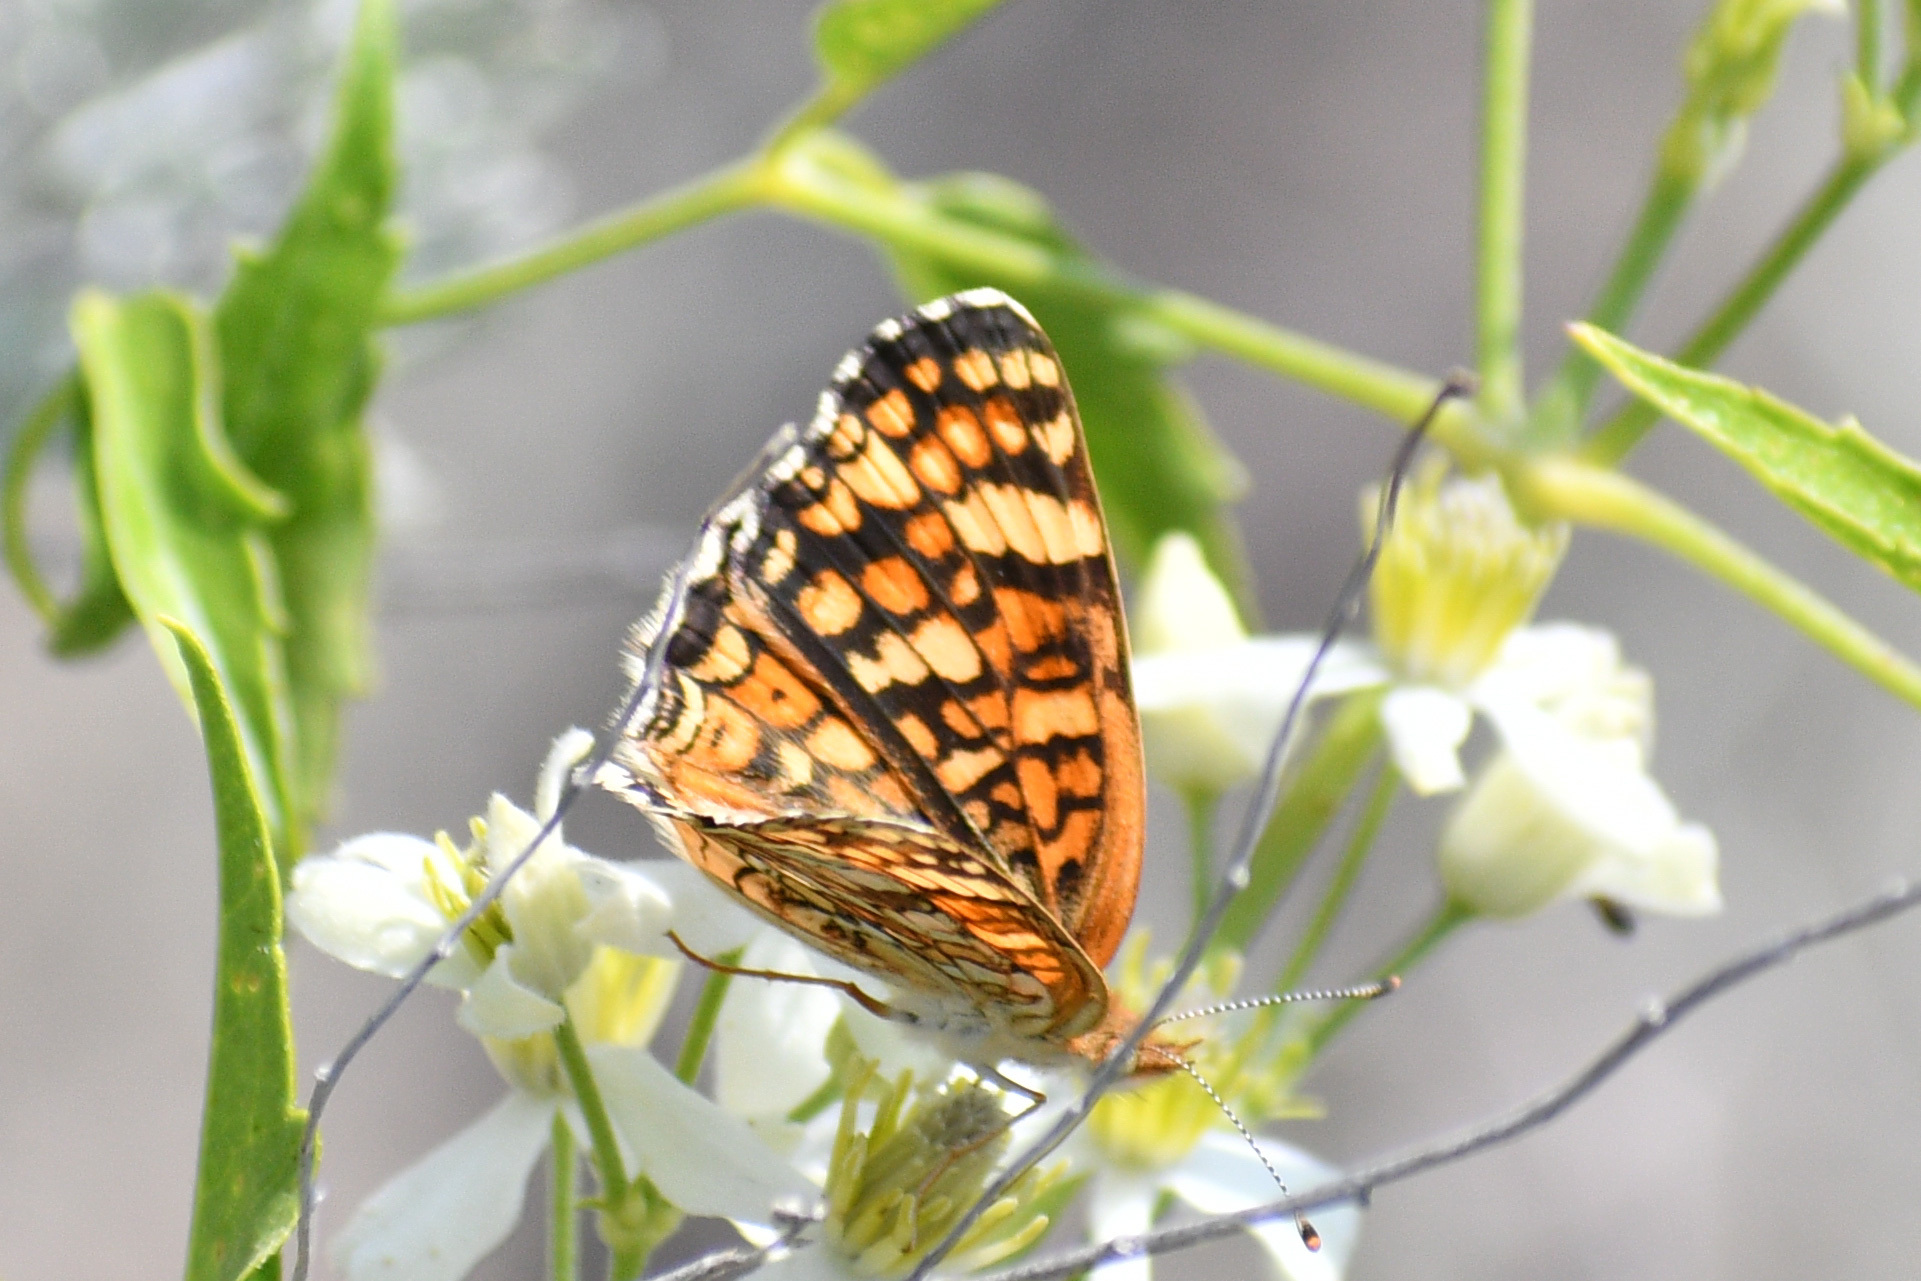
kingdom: Animalia
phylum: Arthropoda
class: Insecta
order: Lepidoptera
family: Nymphalidae
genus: Phyciodes
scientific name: Phyciodes pallida
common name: Pale crescent
